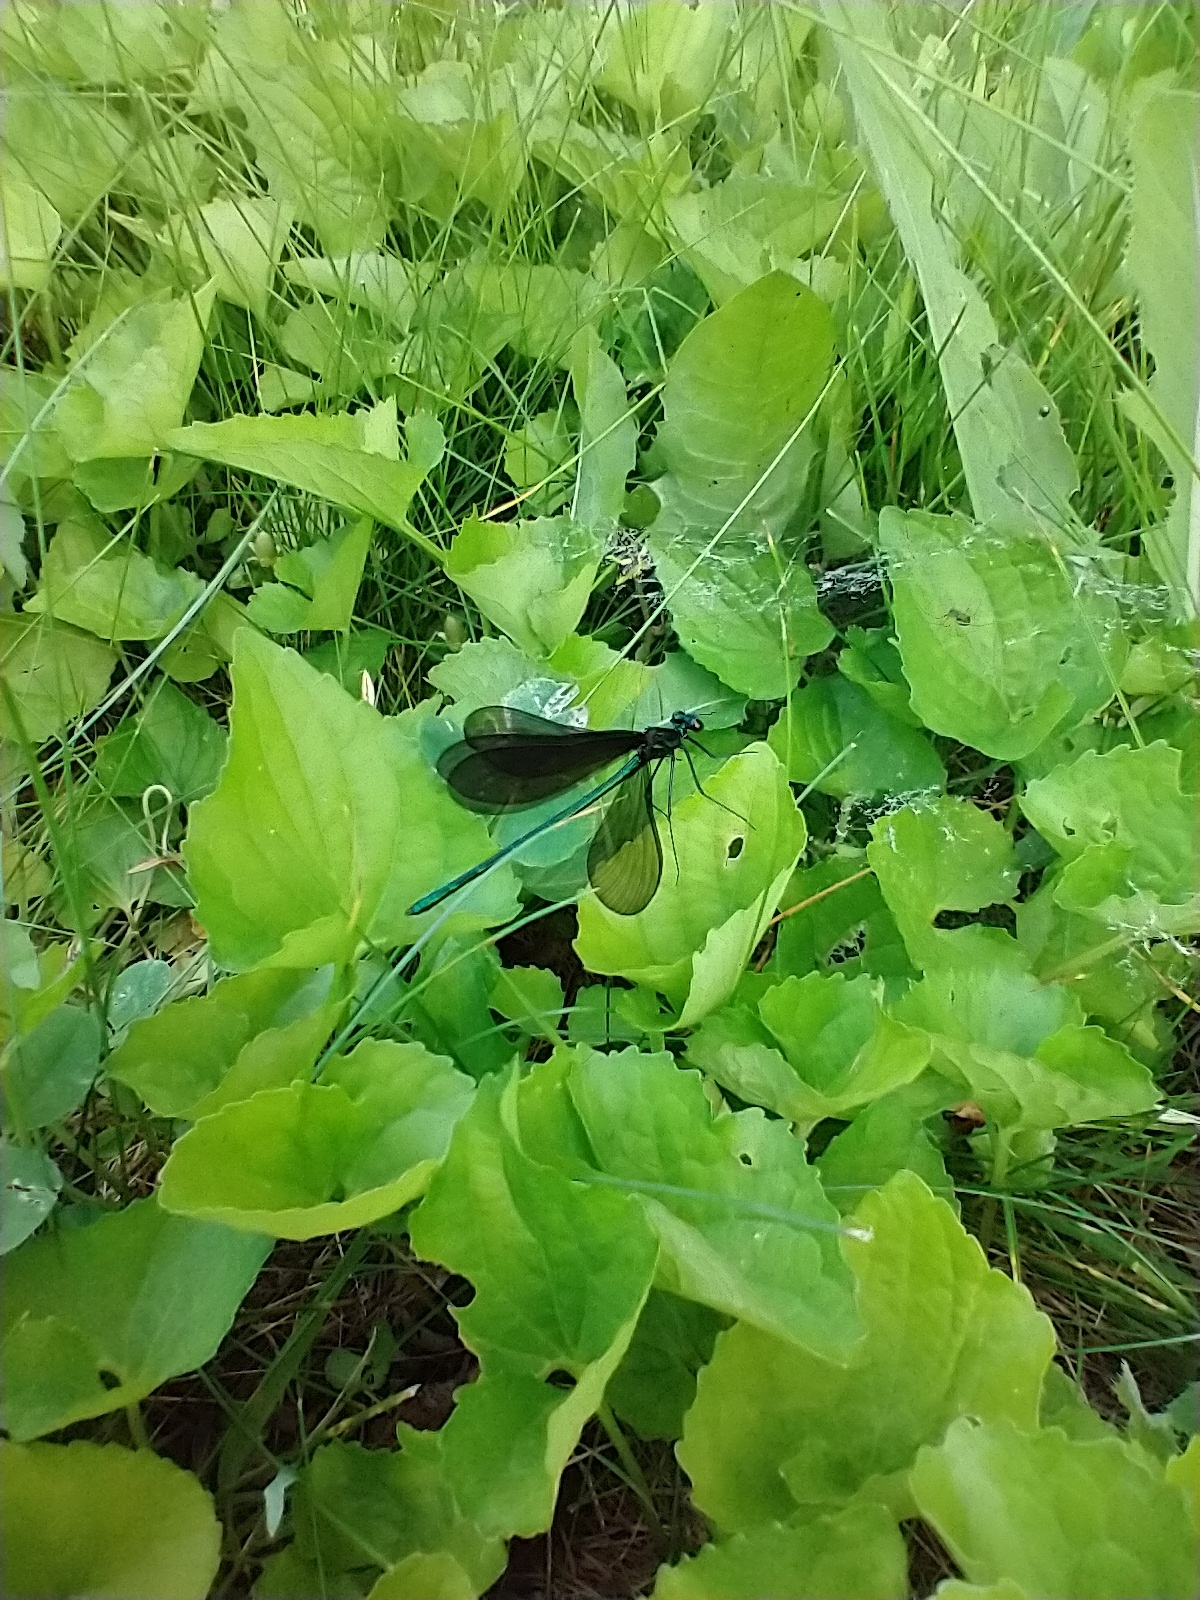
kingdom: Animalia
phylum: Arthropoda
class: Insecta
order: Odonata
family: Calopterygidae
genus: Calopteryx
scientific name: Calopteryx maculata
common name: Ebony jewelwing
